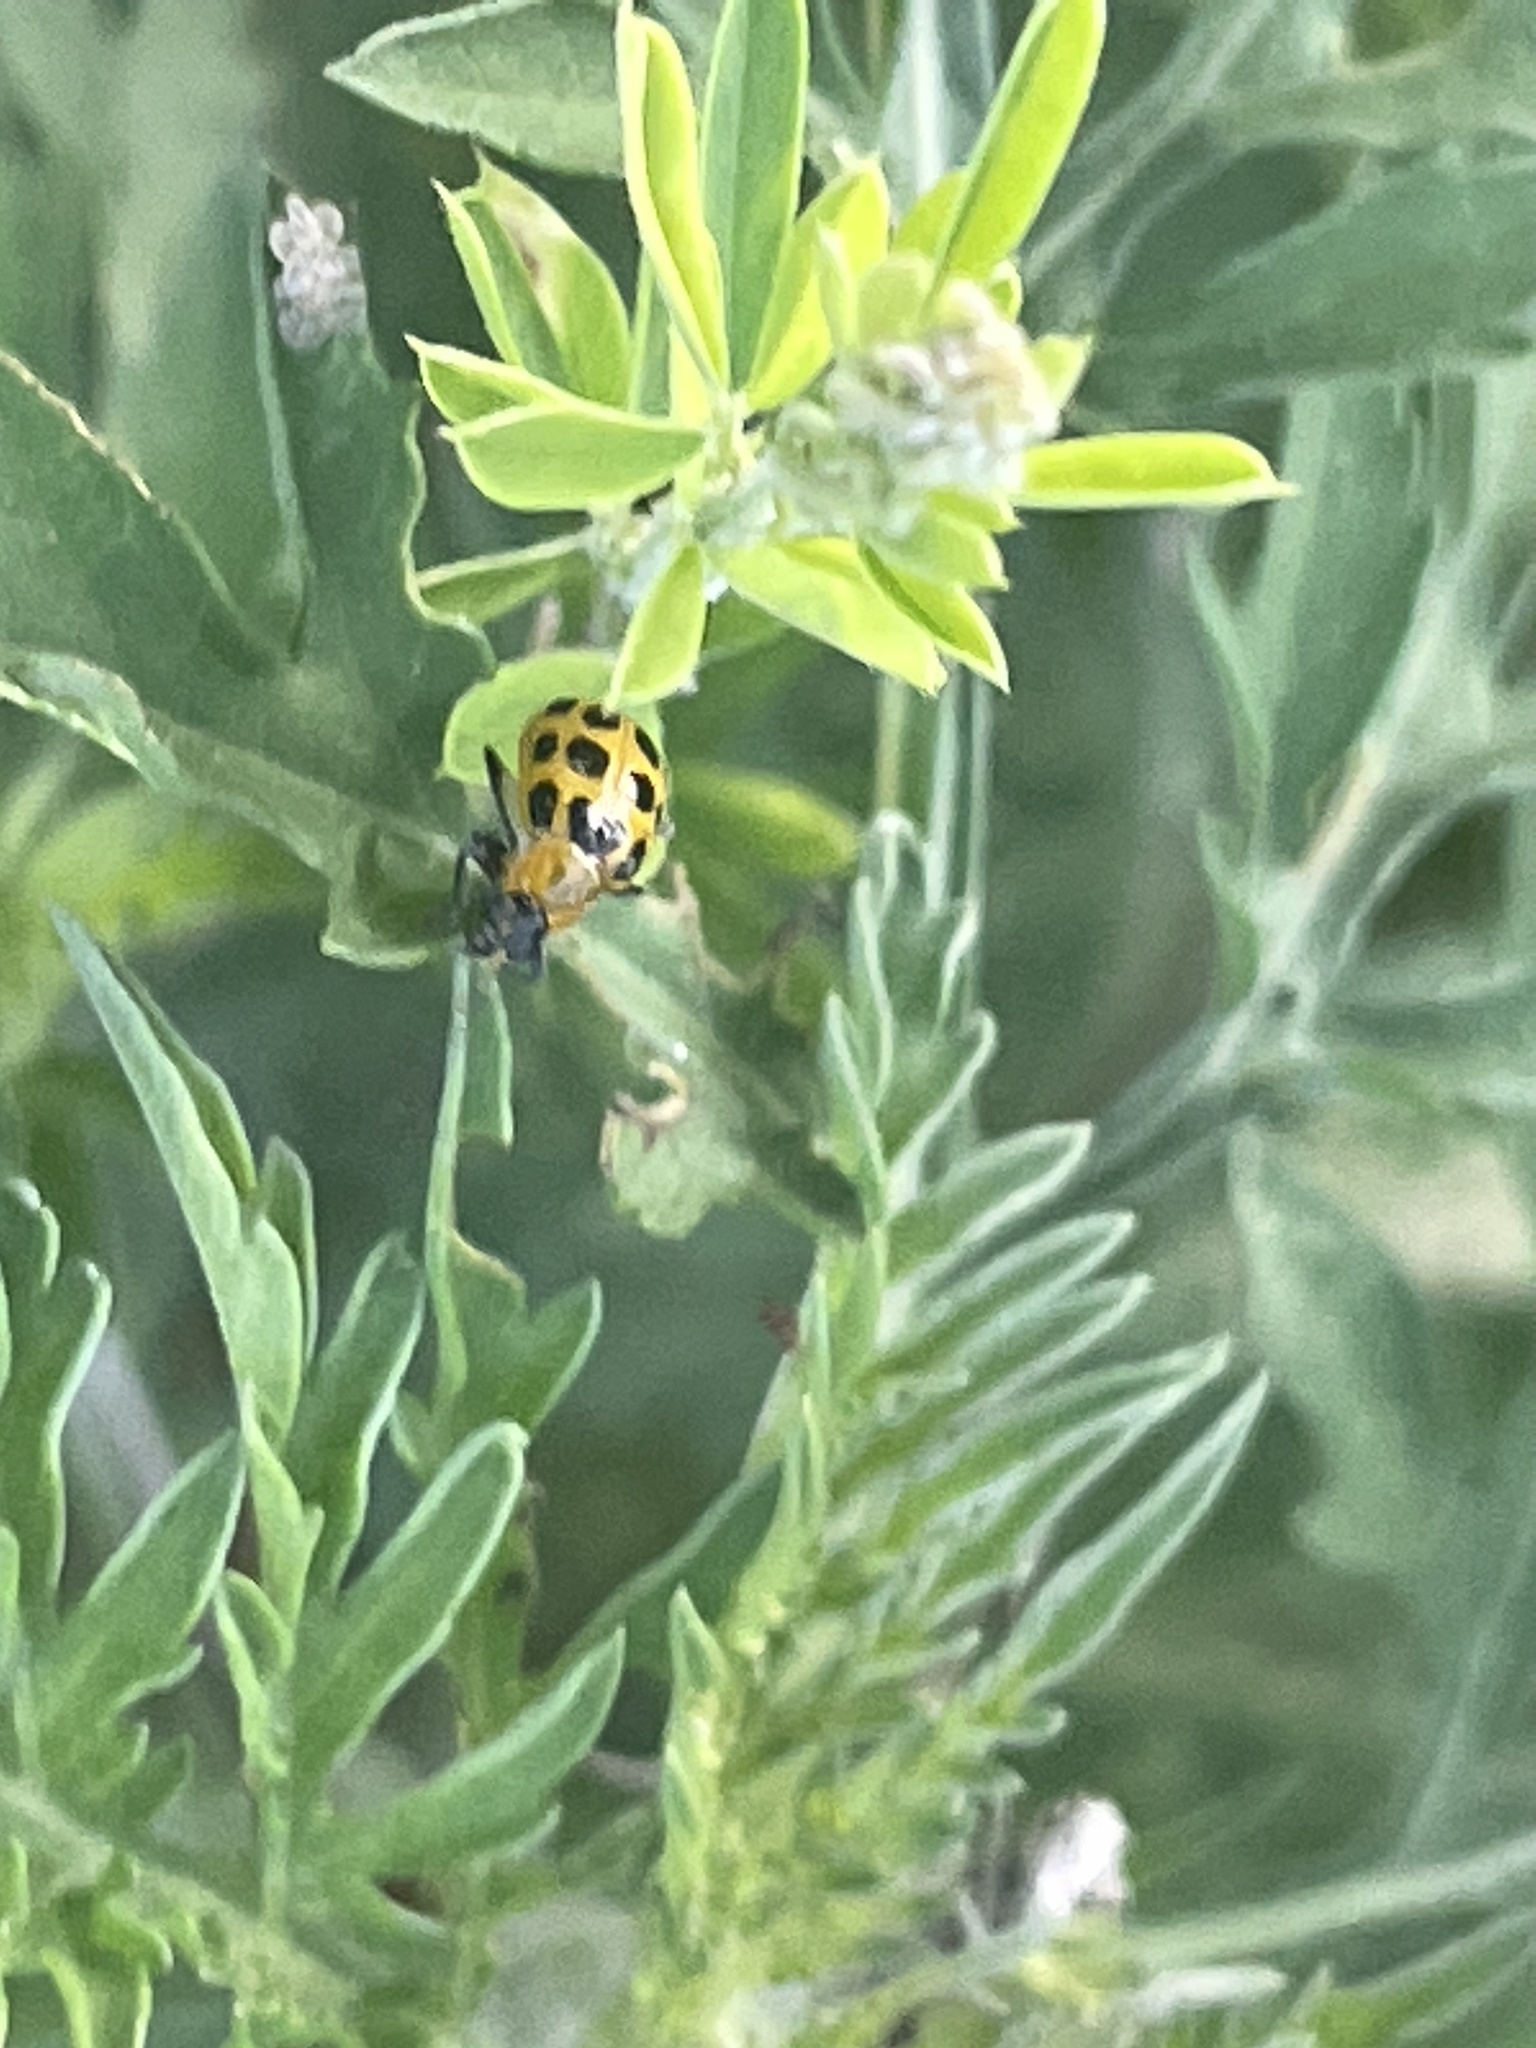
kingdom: Animalia
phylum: Arthropoda
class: Insecta
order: Coleoptera
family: Chrysomelidae
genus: Diabrotica
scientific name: Diabrotica undecimpunctata
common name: Spotted cucumber beetle
